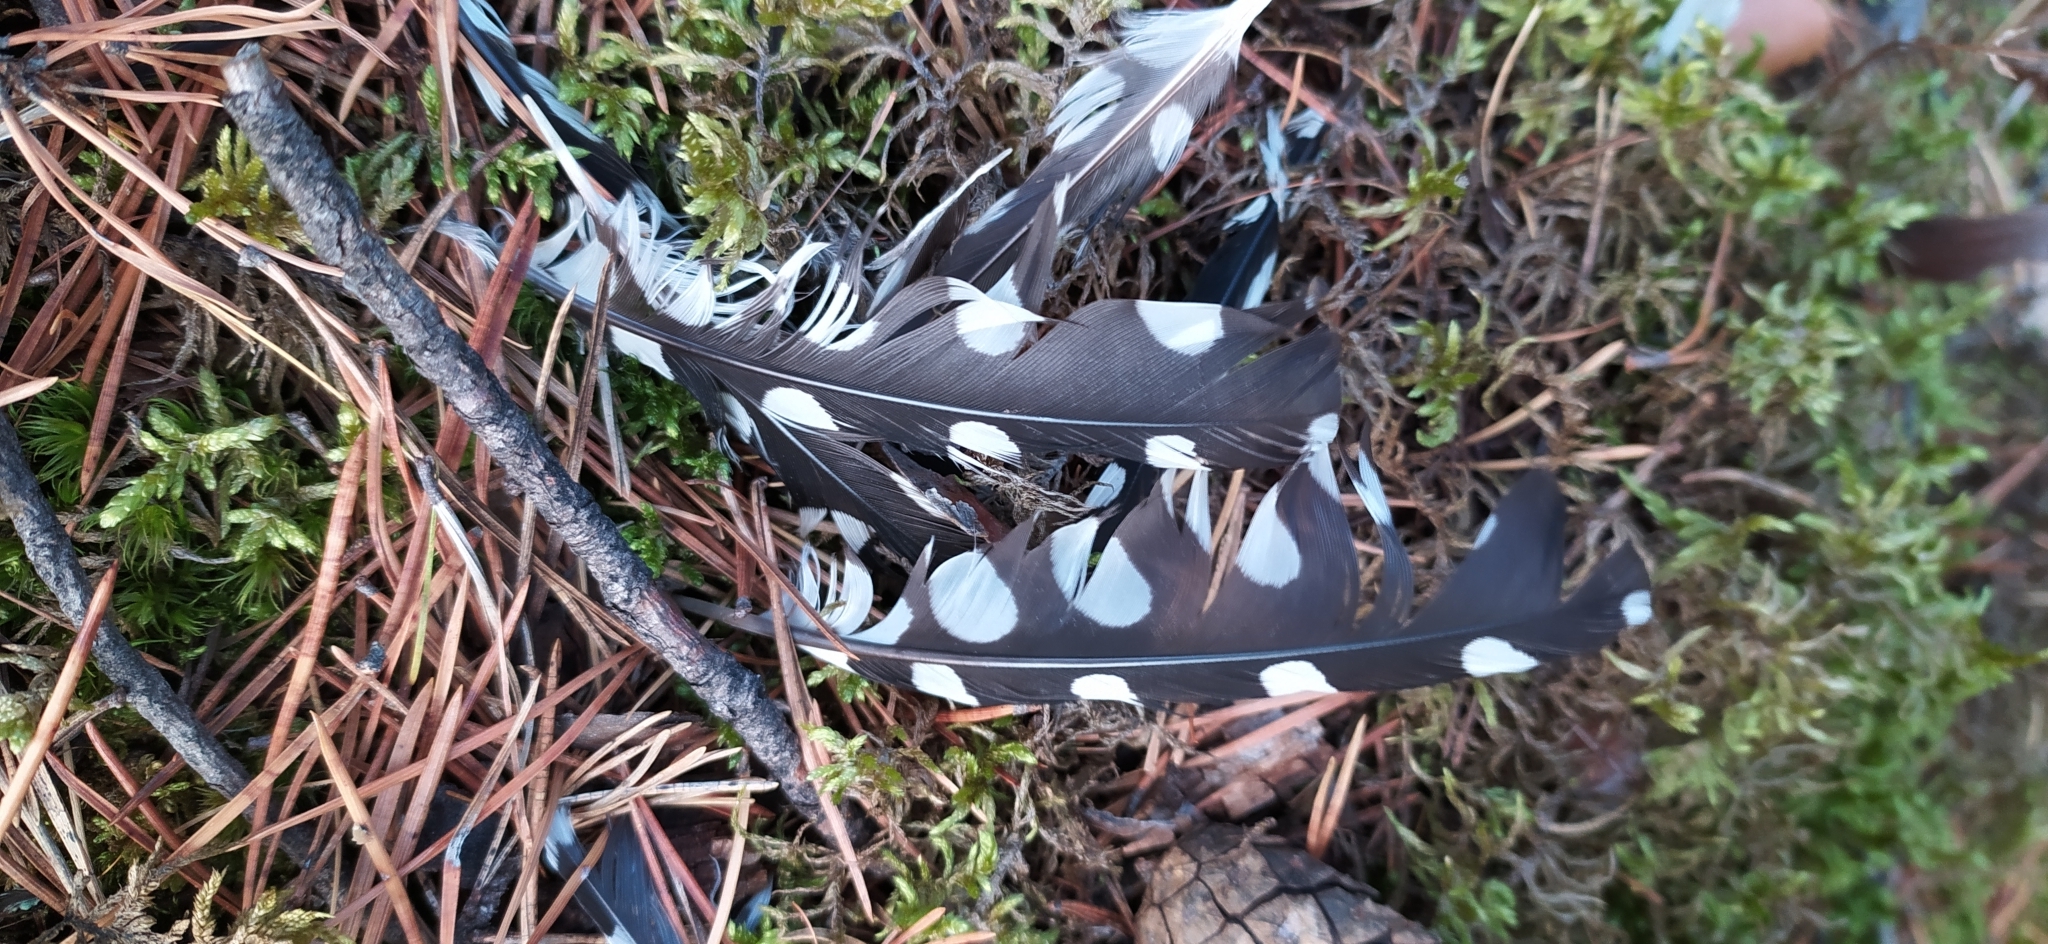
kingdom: Animalia
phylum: Chordata
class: Aves
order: Piciformes
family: Picidae
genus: Dendrocopos
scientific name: Dendrocopos major
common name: Great spotted woodpecker
